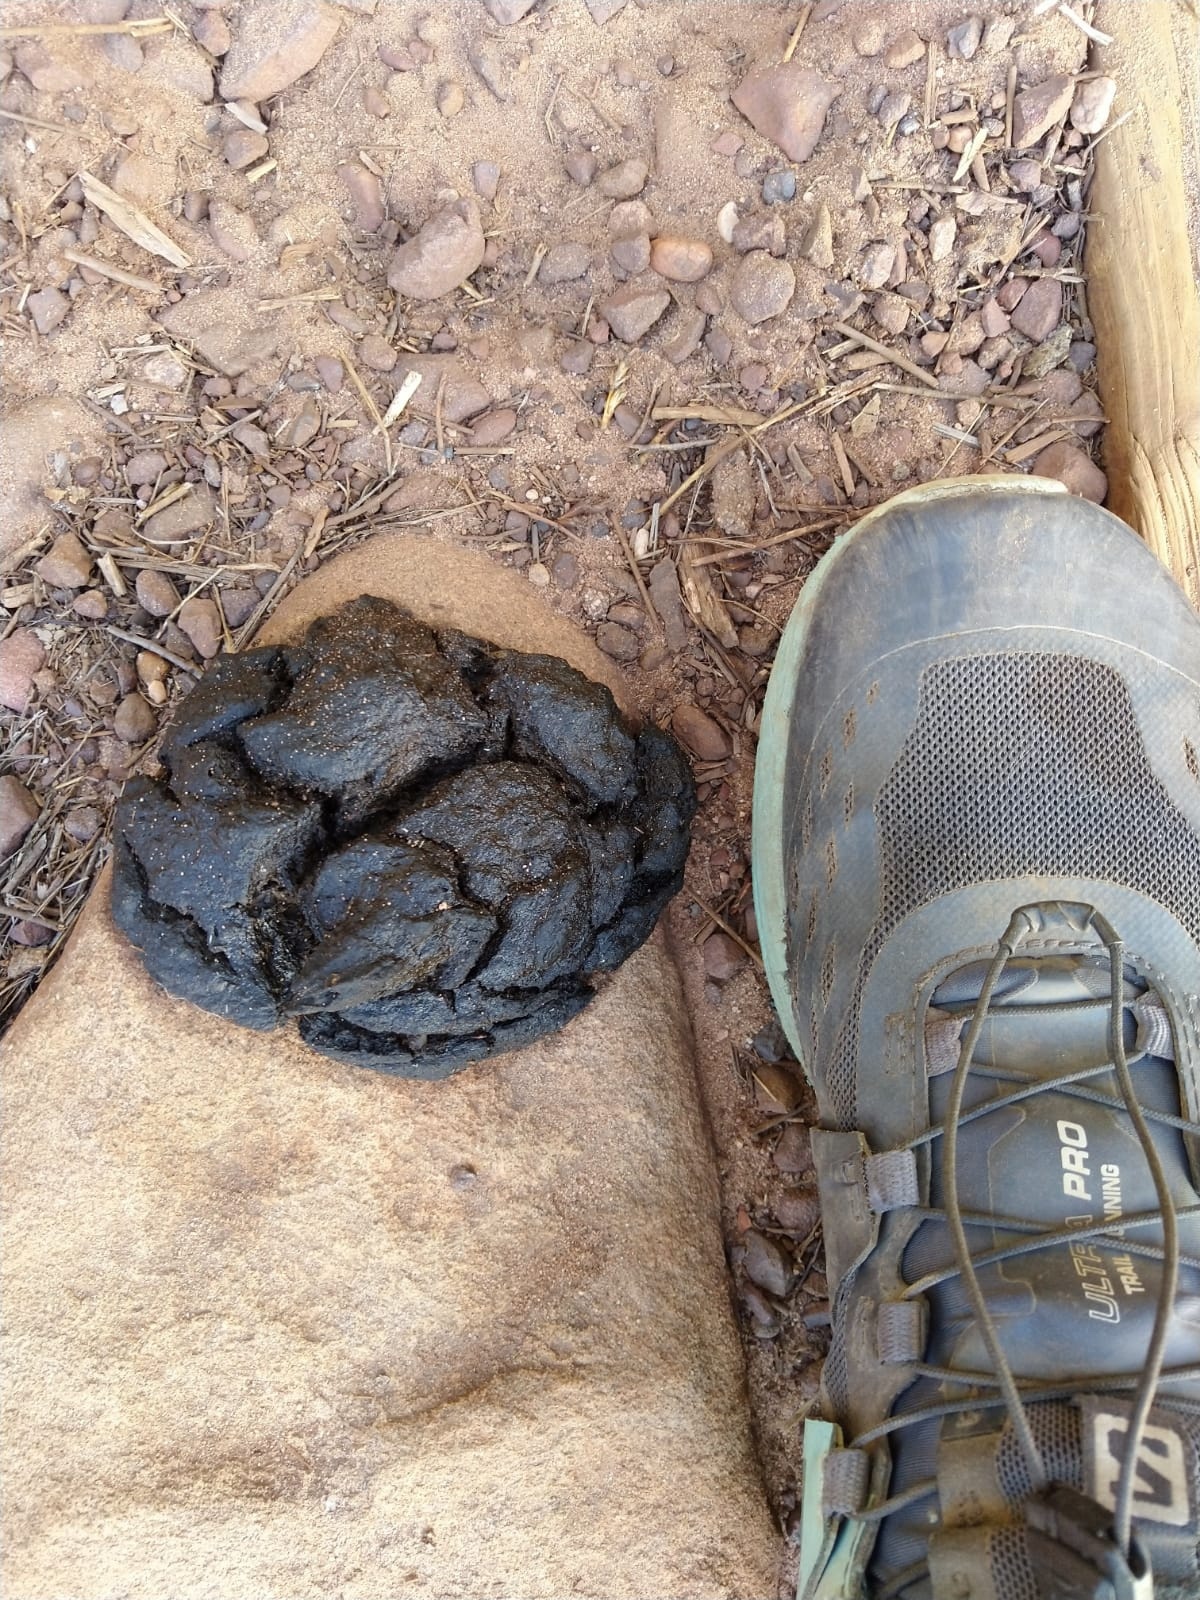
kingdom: Animalia
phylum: Chordata
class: Mammalia
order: Primates
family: Cercopithecidae
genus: Papio
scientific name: Papio ursinus
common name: Chacma baboon
